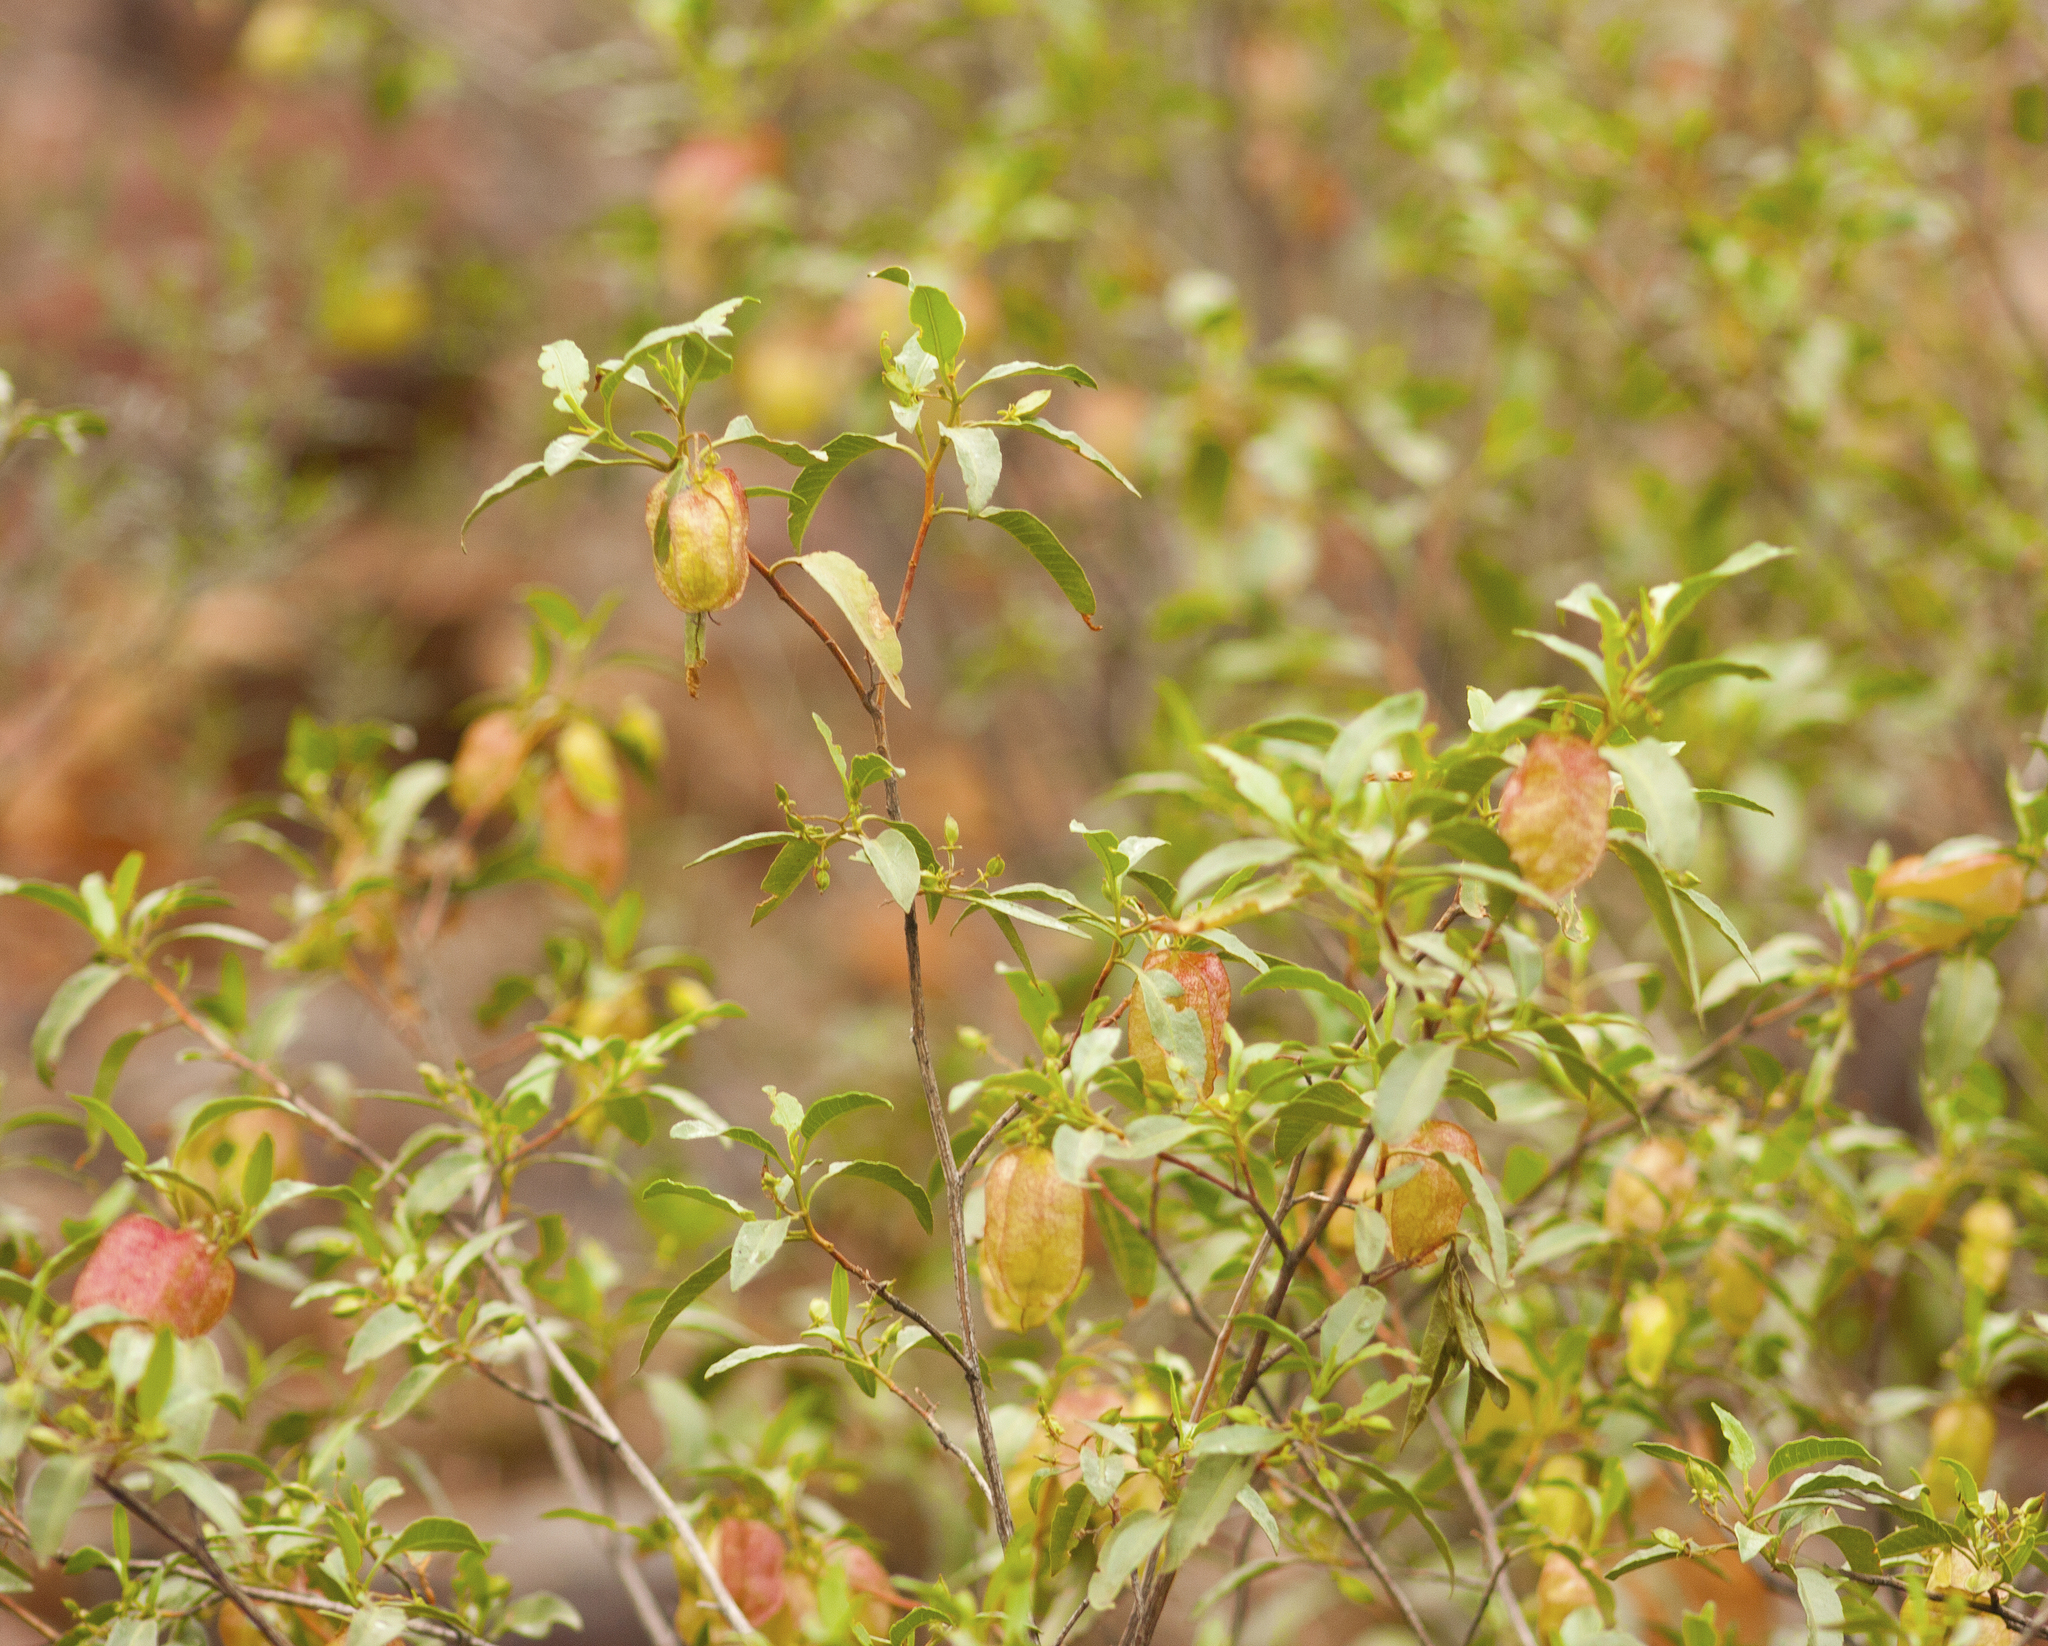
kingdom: Plantae
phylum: Tracheophyta
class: Magnoliopsida
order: Sapindales
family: Sapindaceae
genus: Dodonaea
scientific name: Dodonaea petiolaris
